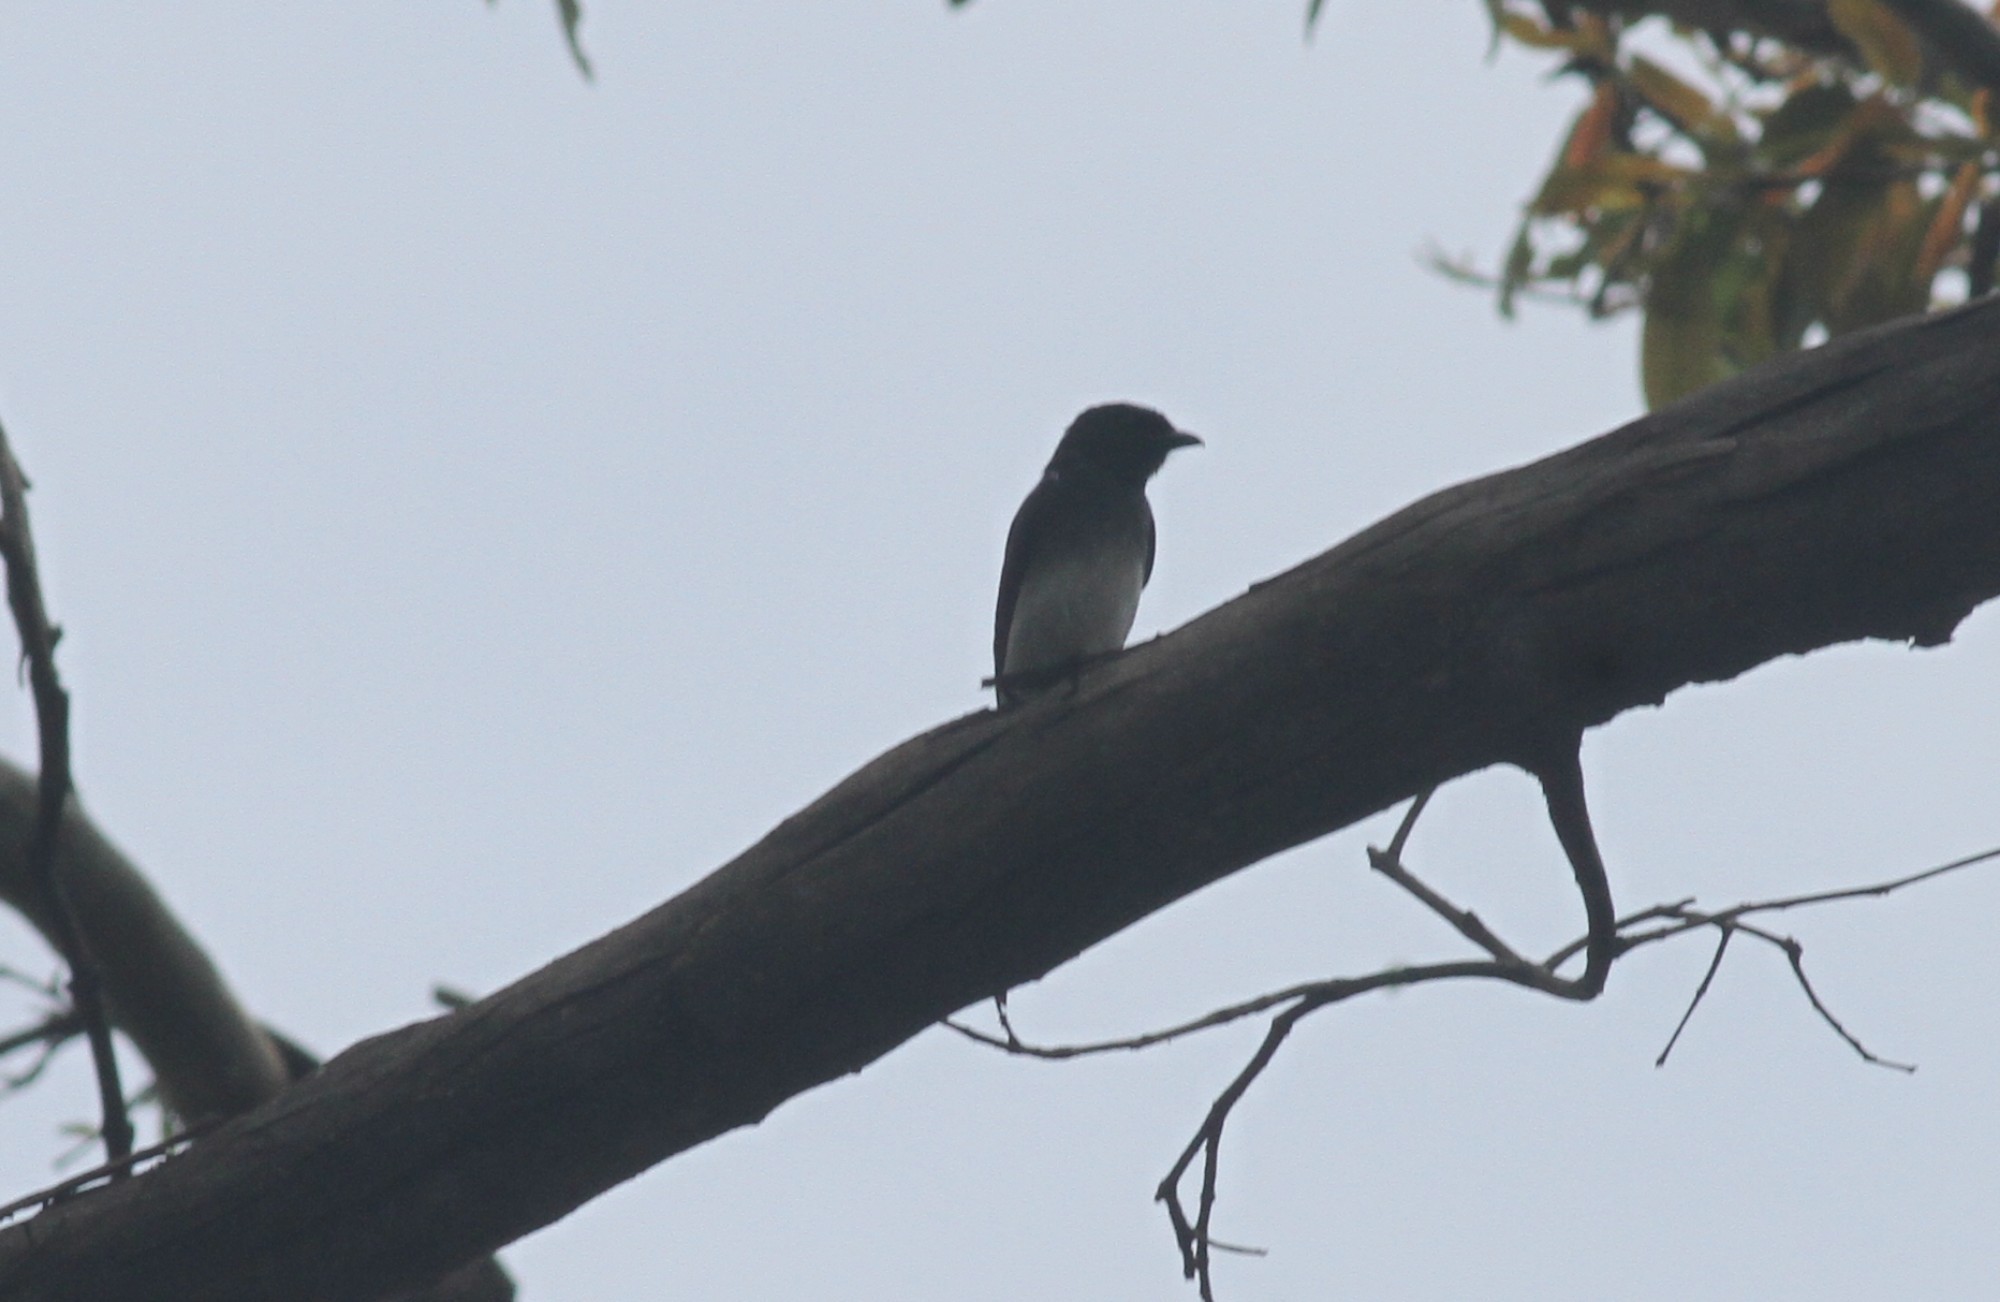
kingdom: Animalia
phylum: Chordata
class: Aves
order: Passeriformes
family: Dicruridae
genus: Dicrurus
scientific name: Dicrurus caerulescens
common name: White-bellied drongo
